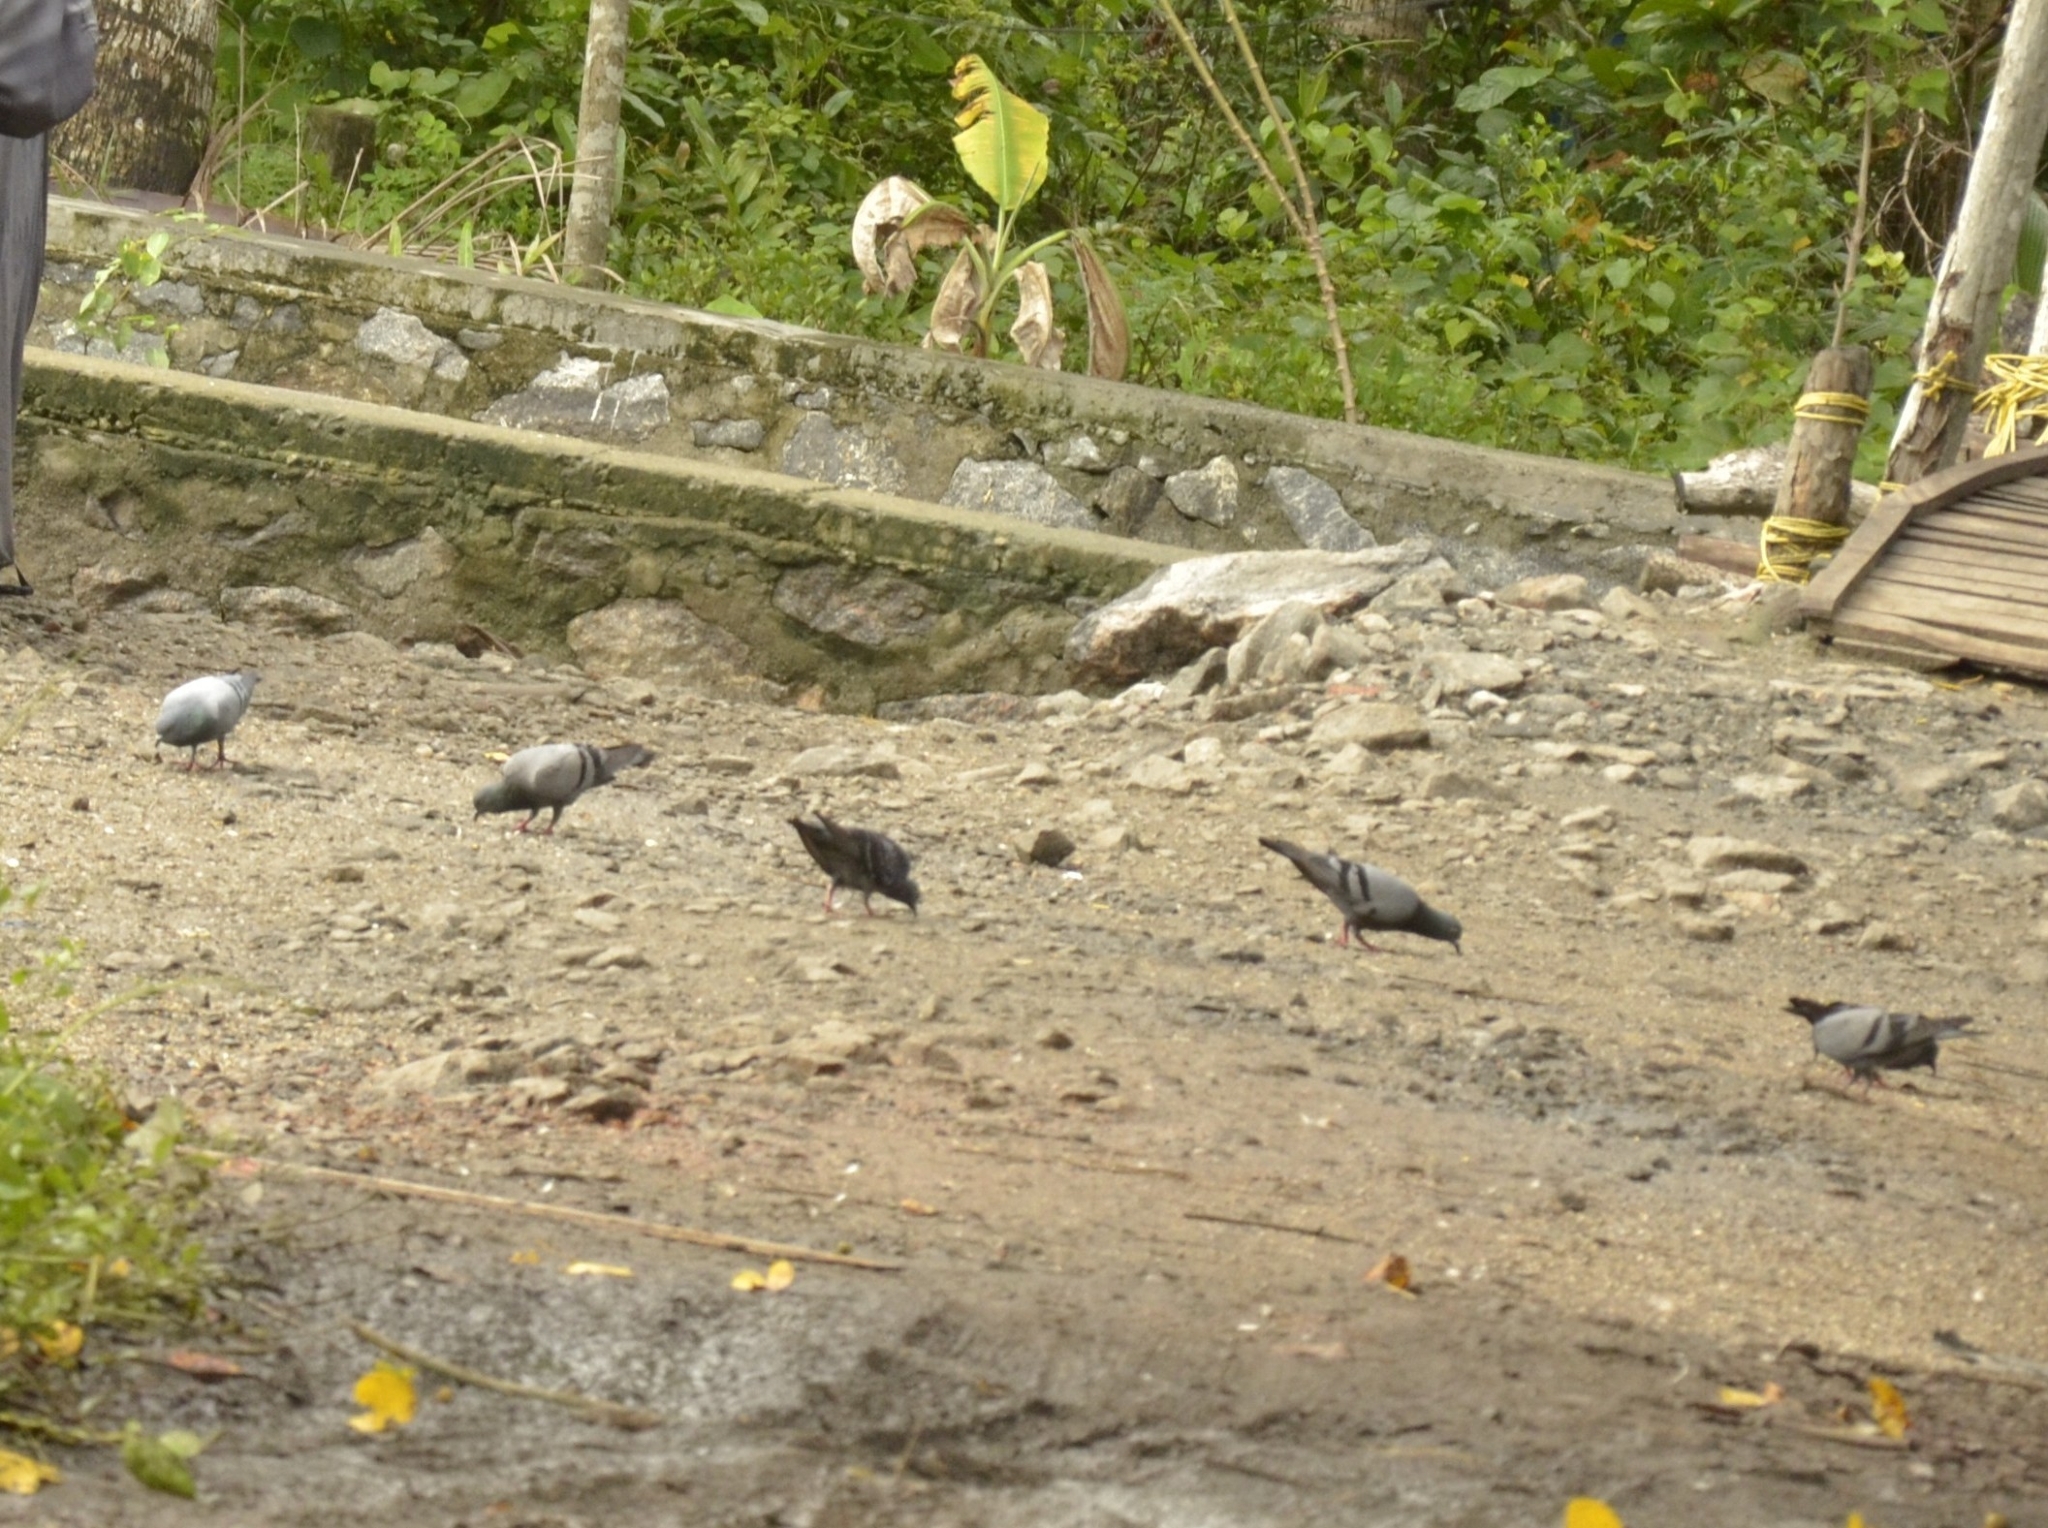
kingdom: Animalia
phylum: Chordata
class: Aves
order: Columbiformes
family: Columbidae
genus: Columba
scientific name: Columba livia
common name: Rock pigeon
